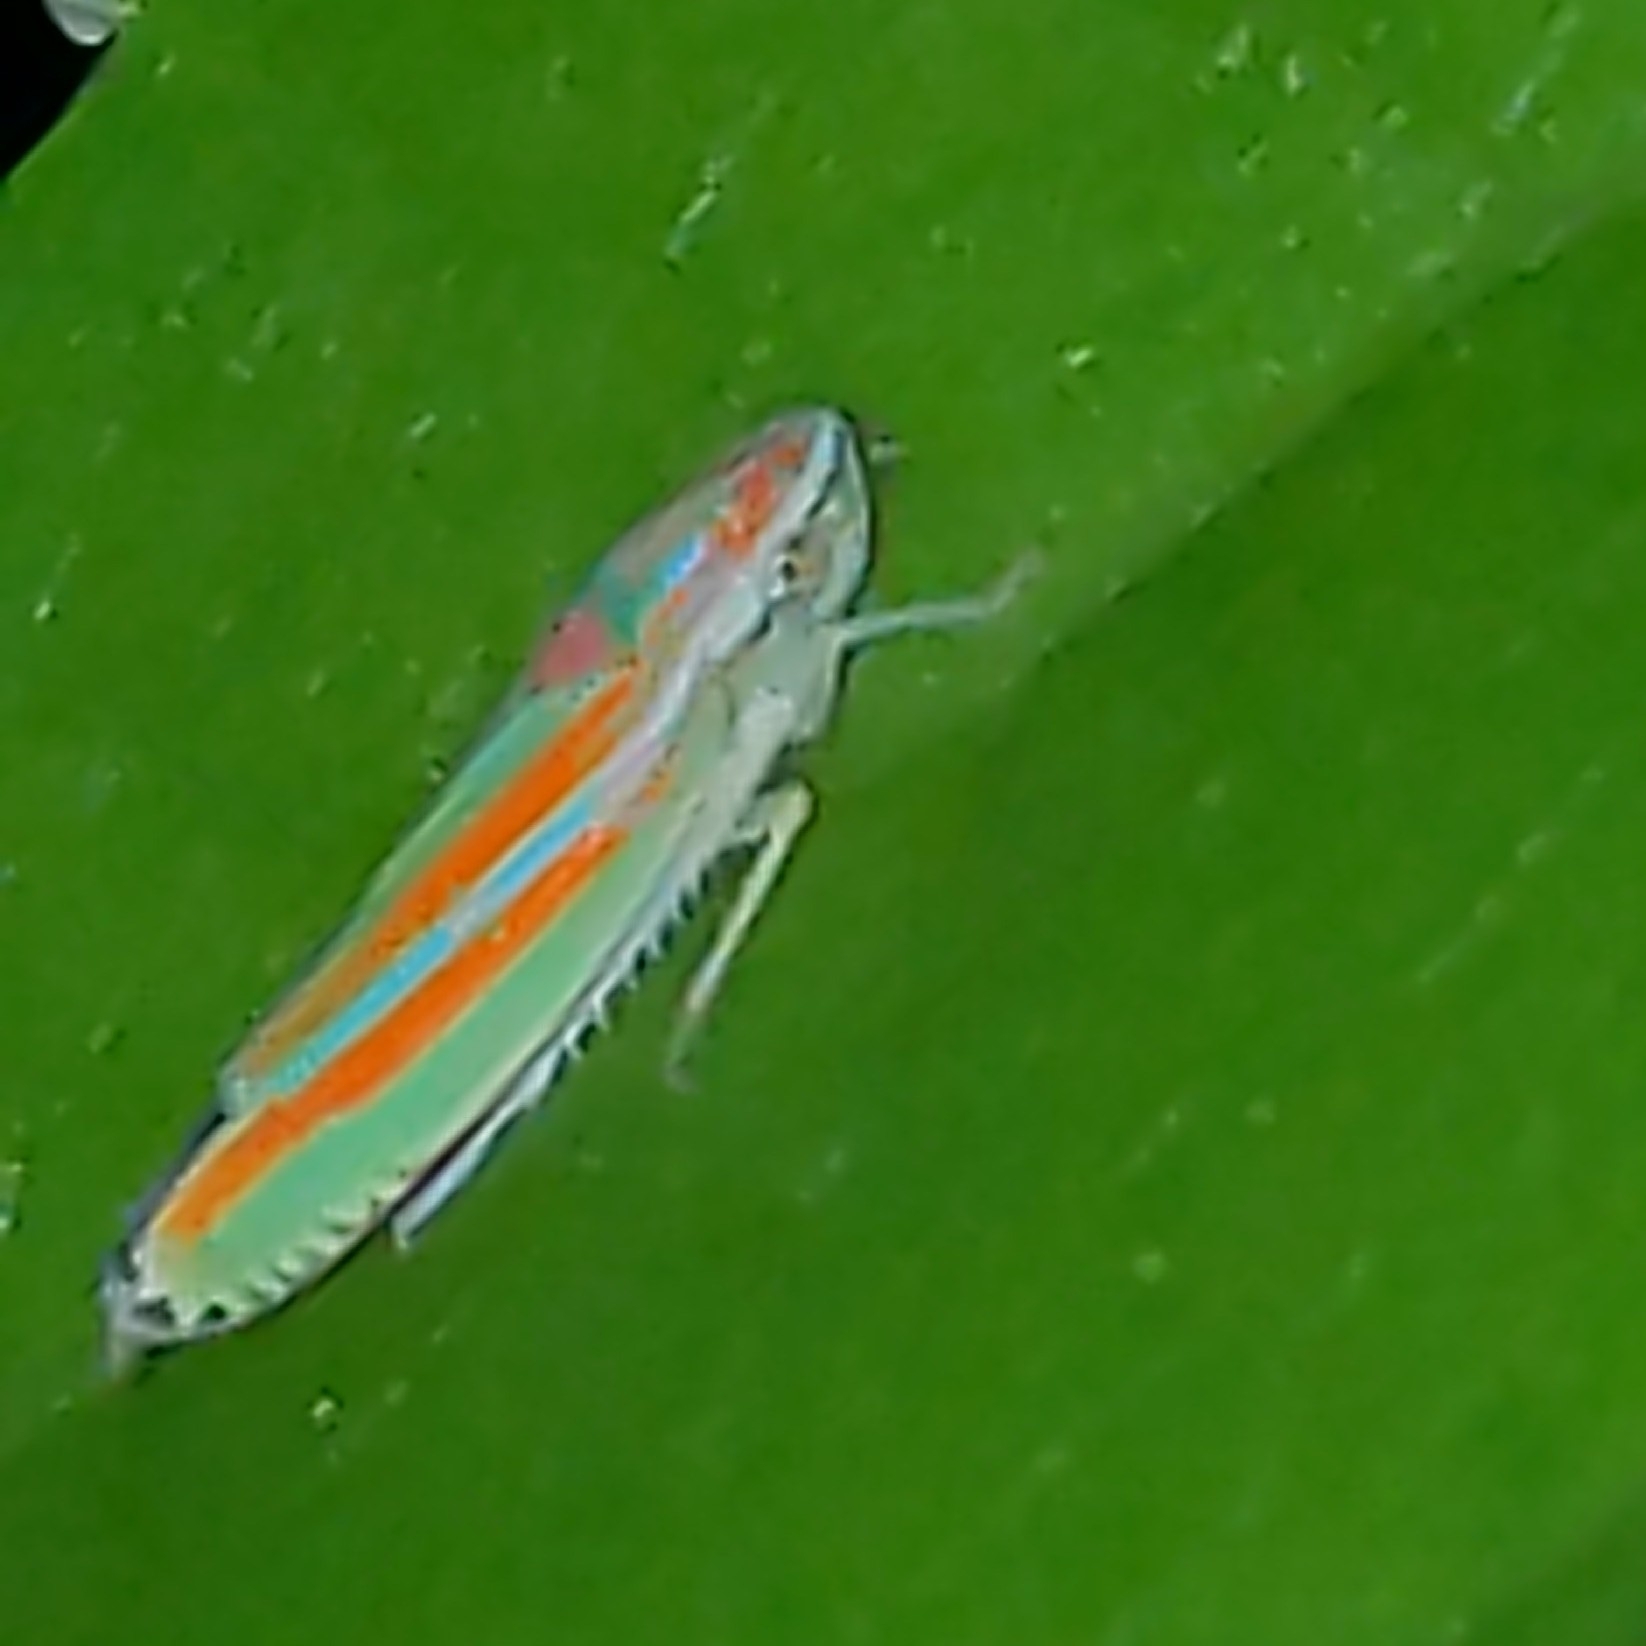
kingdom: Animalia
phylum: Arthropoda
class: Insecta
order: Hemiptera
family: Cicadellidae
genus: Graphocephala
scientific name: Graphocephala versuta
